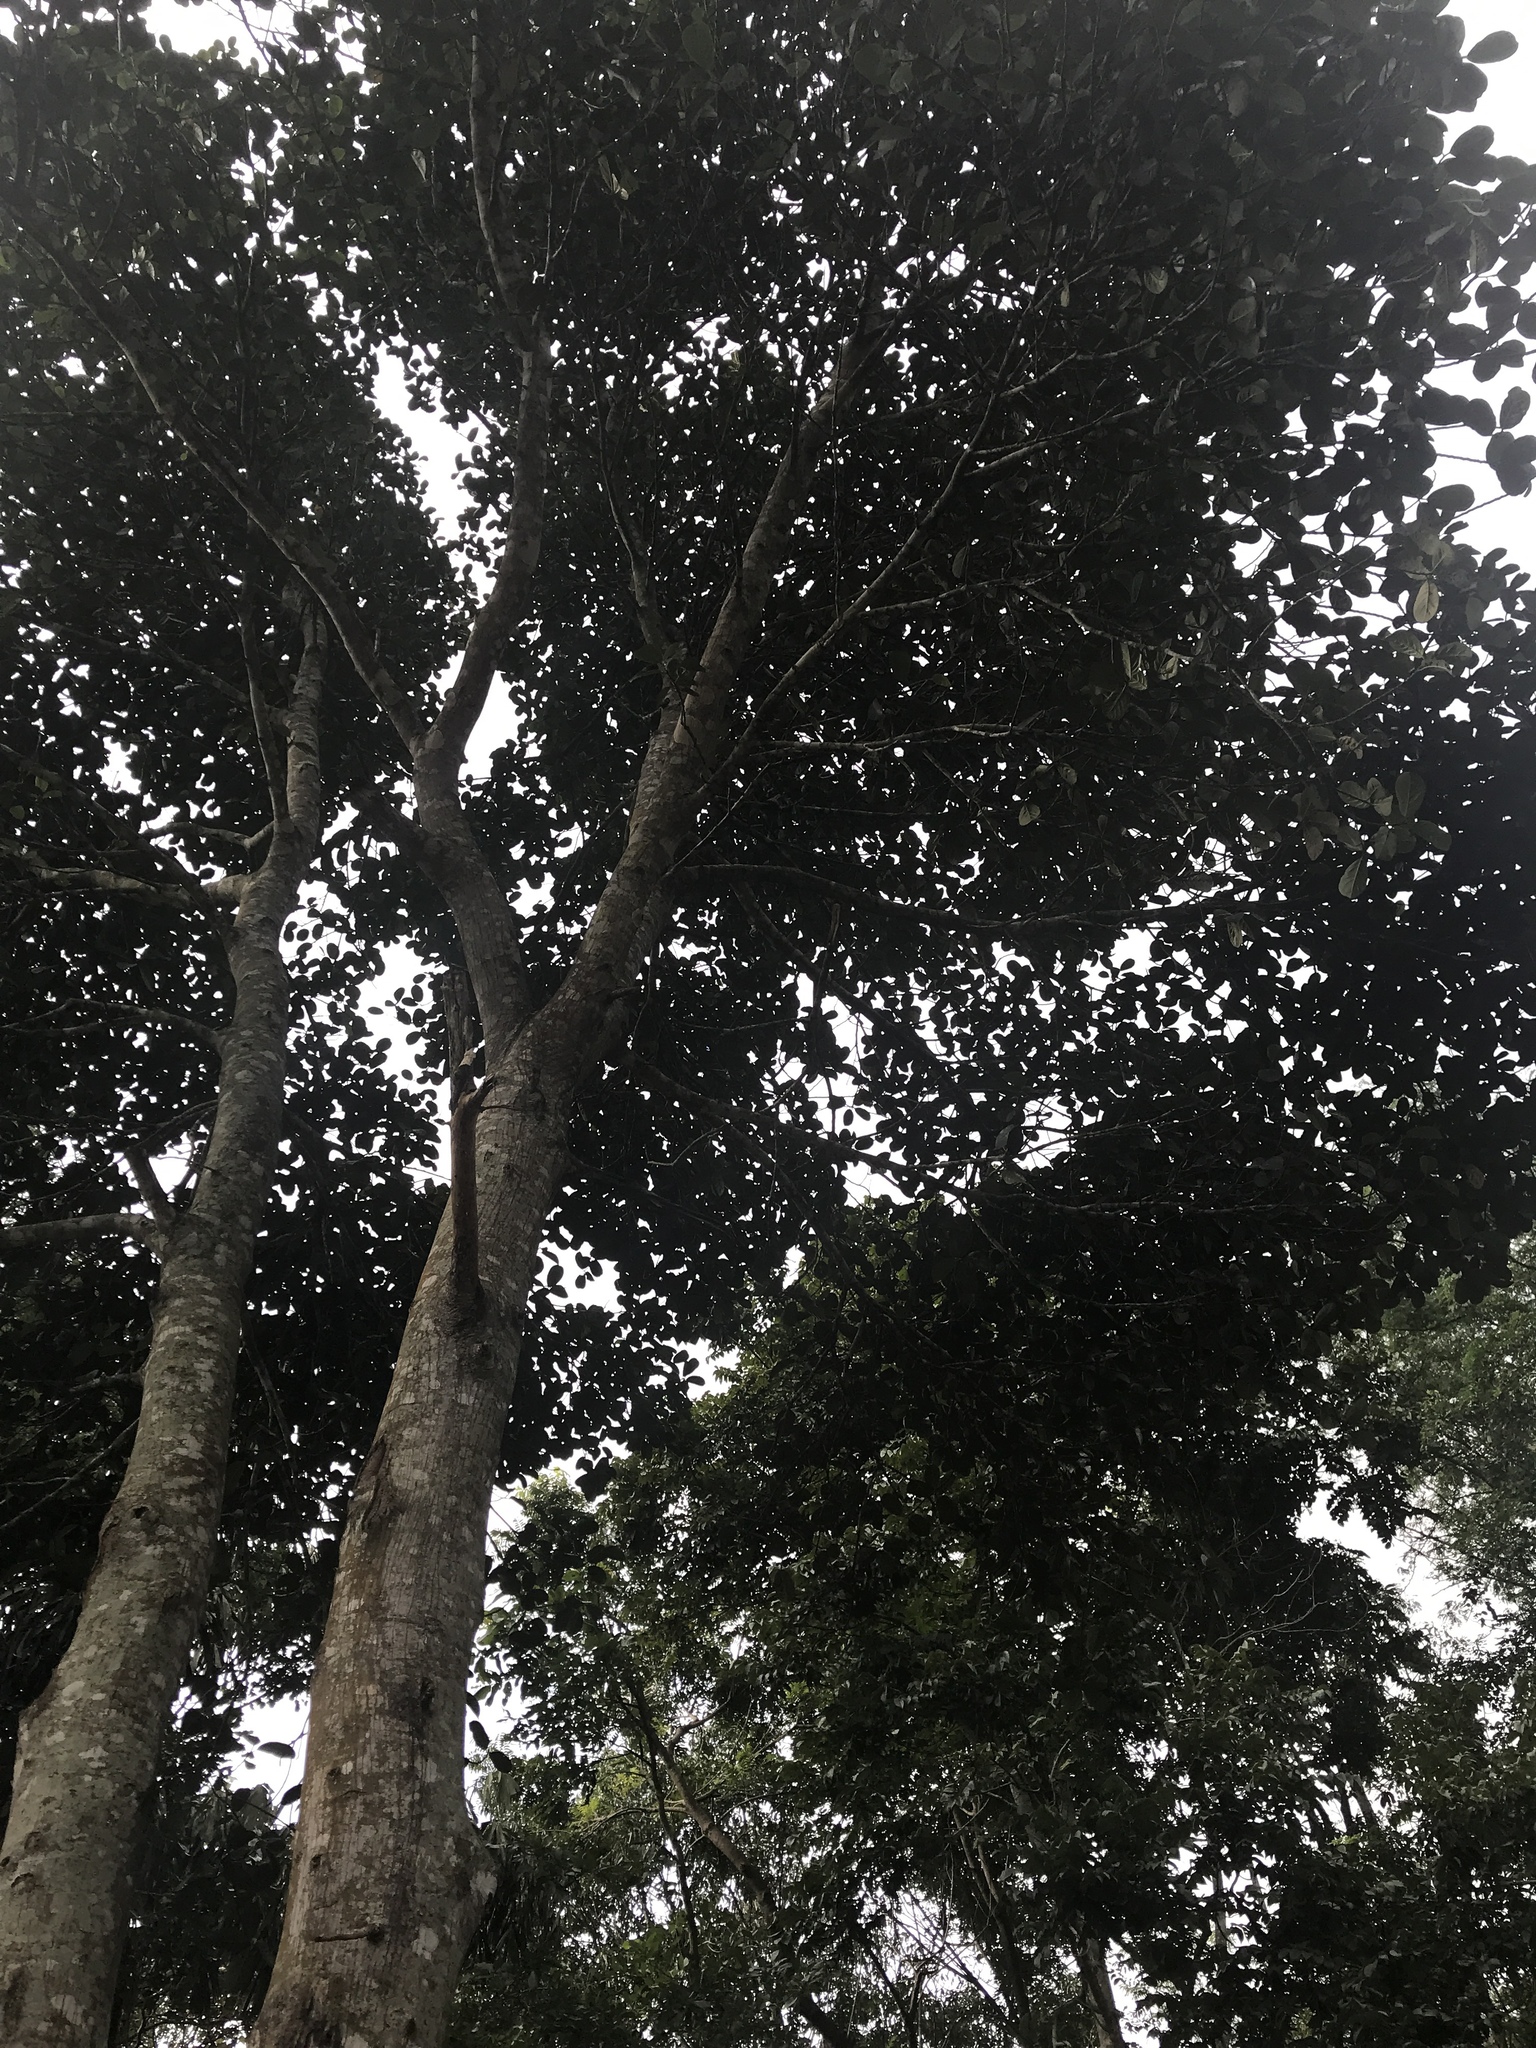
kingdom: Plantae
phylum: Tracheophyta
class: Magnoliopsida
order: Rosales
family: Moraceae
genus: Artocarpus
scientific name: Artocarpus heterophyllus
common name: Jackfruit
